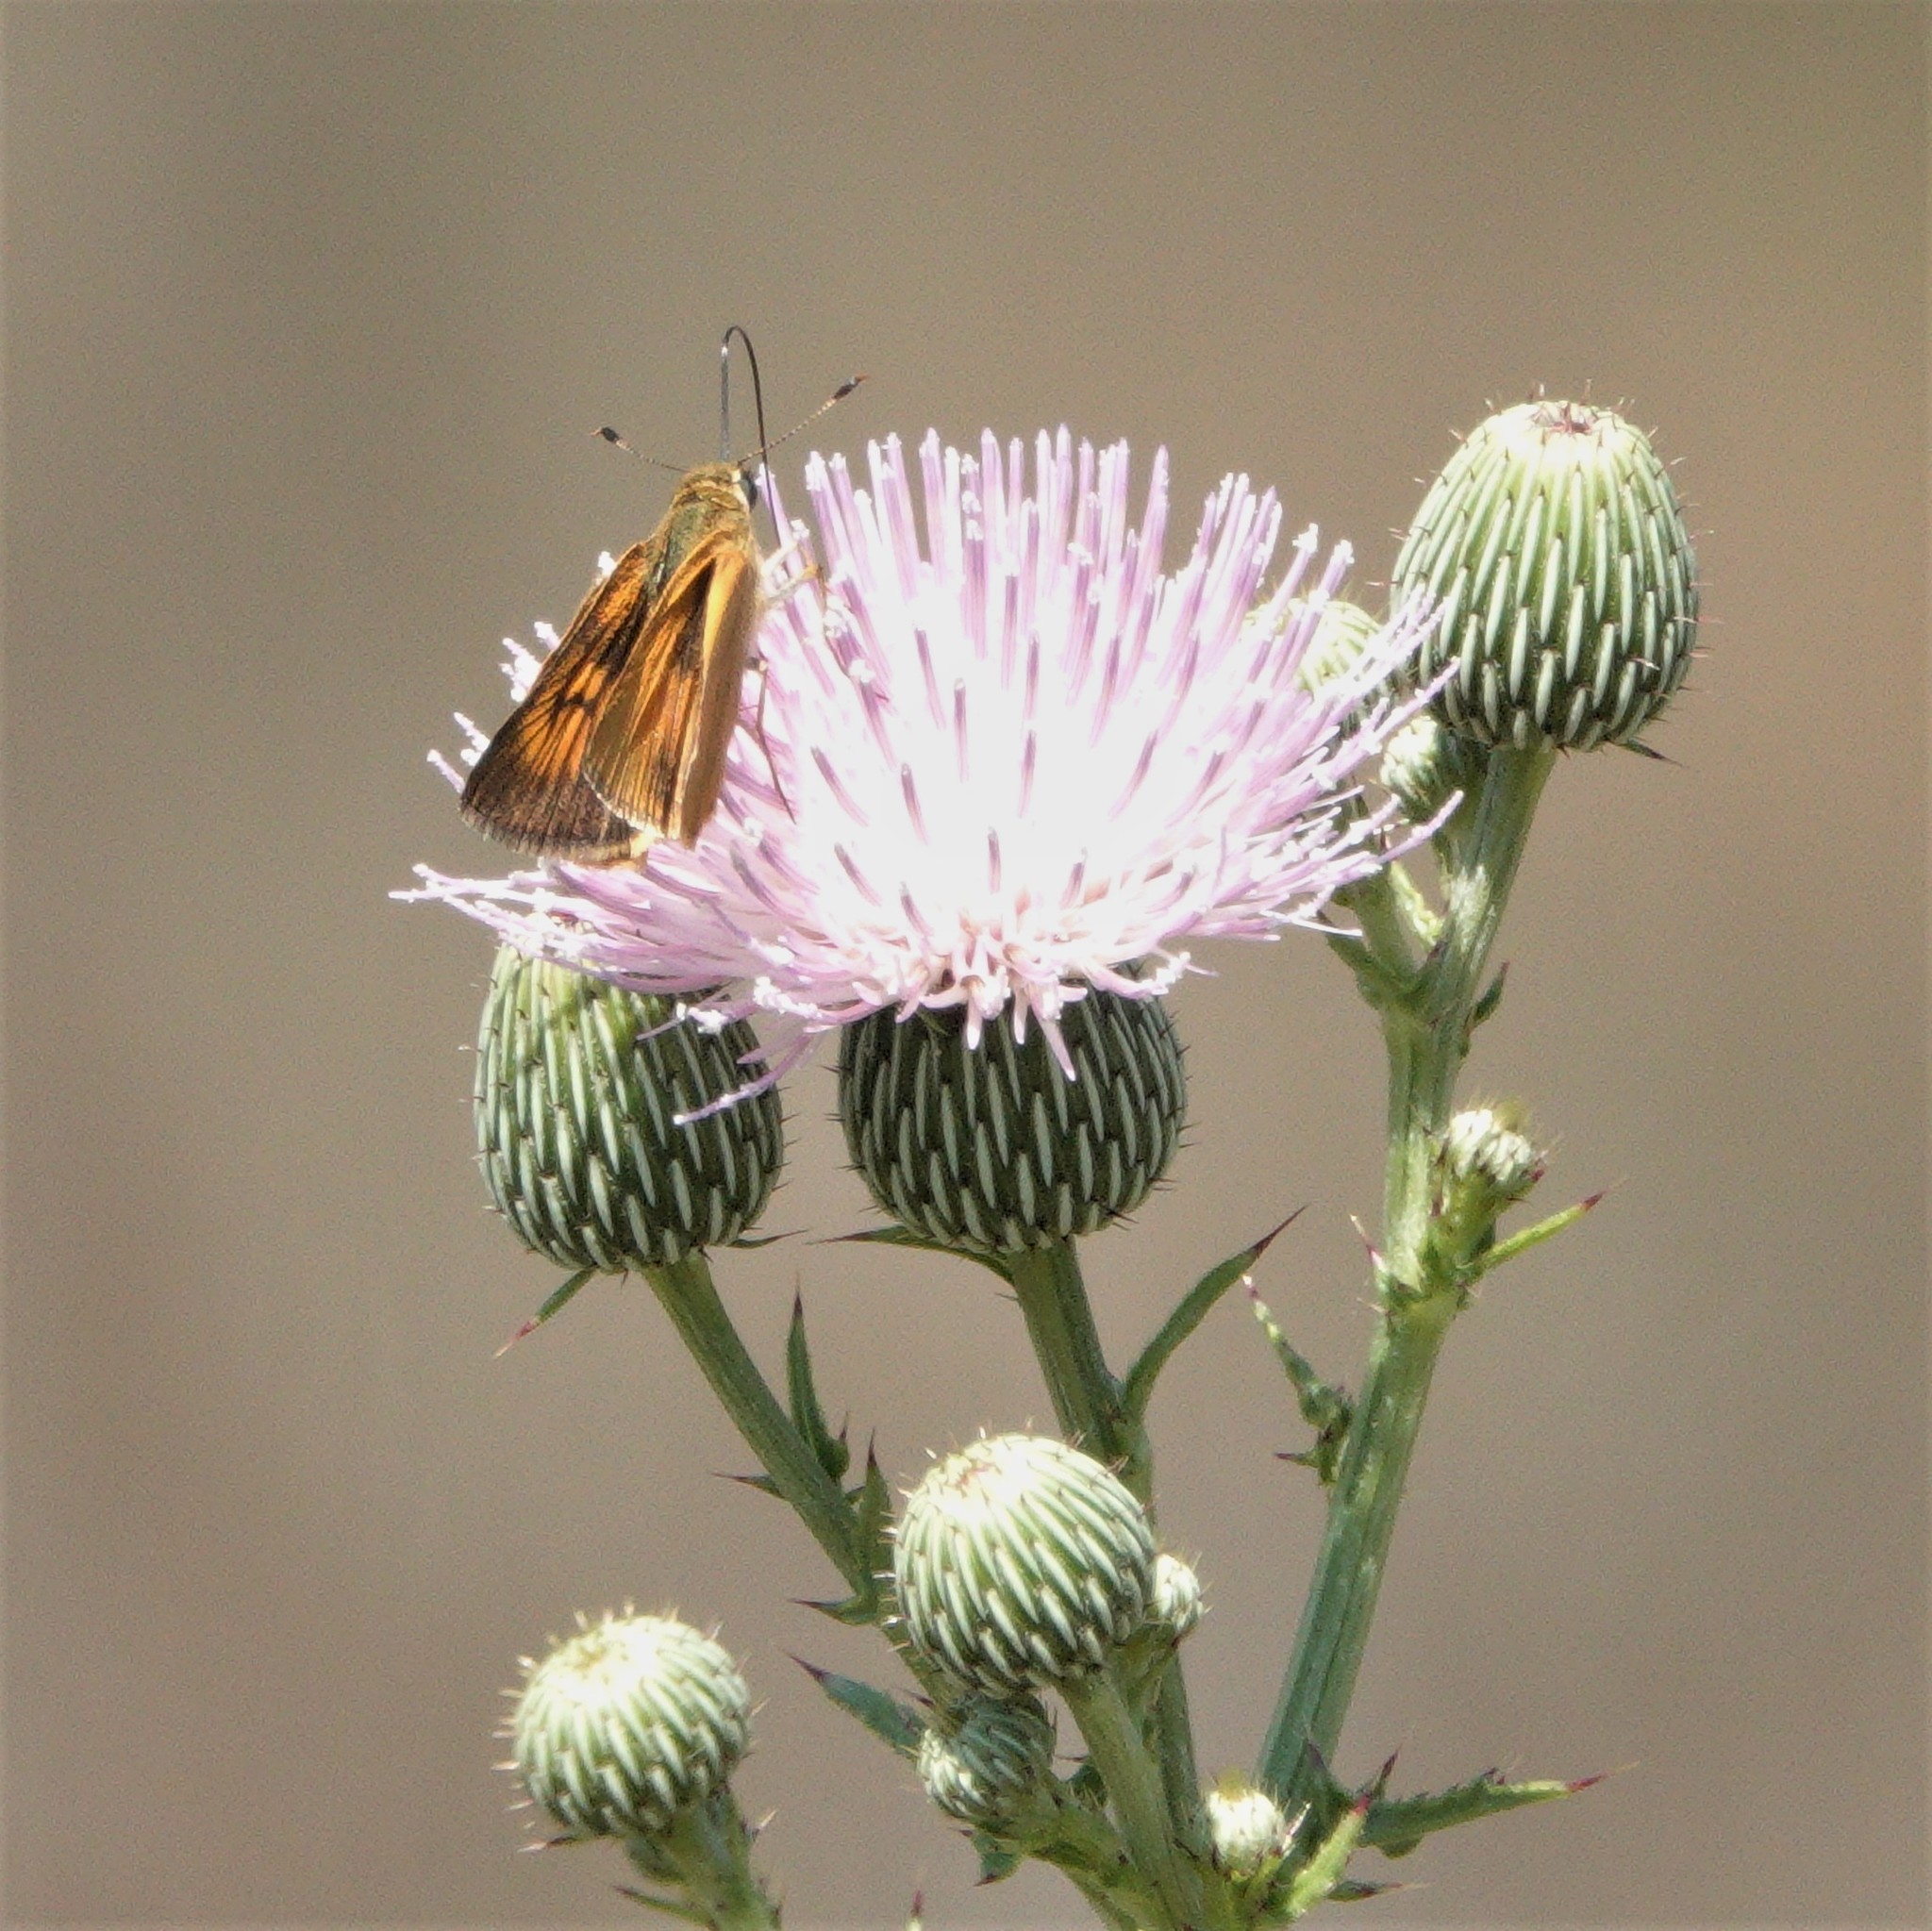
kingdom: Animalia
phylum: Arthropoda
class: Insecta
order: Lepidoptera
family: Hesperiidae
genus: Atrytone
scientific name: Atrytone delaware
